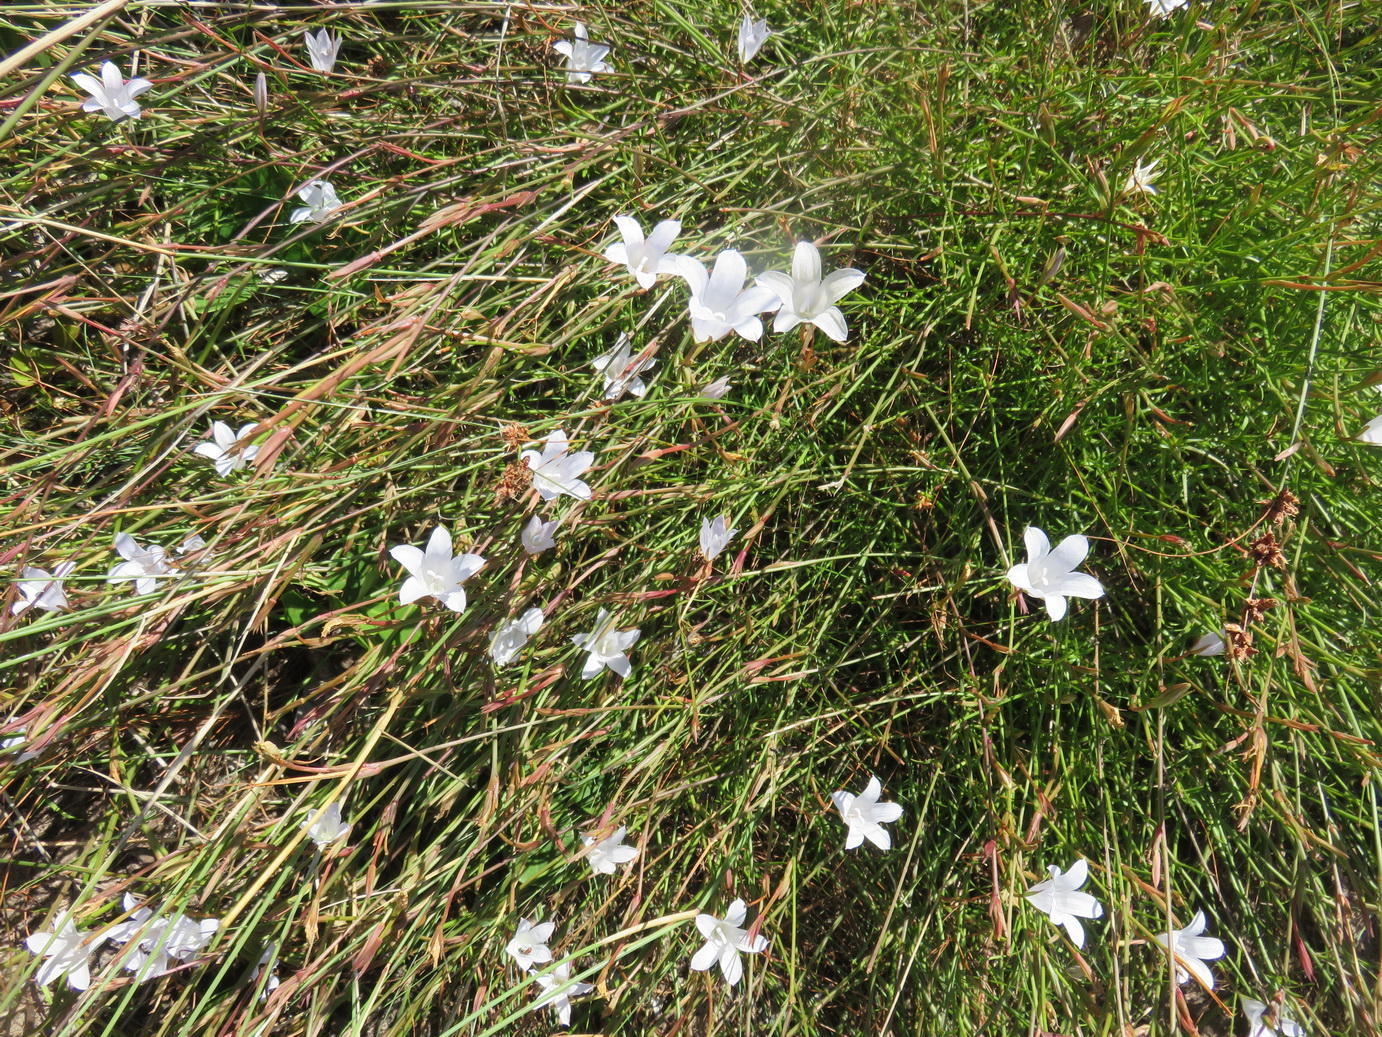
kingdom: Plantae
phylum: Tracheophyta
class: Magnoliopsida
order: Asterales
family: Campanulaceae
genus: Prismatocarpus
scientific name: Prismatocarpus campanuloides
